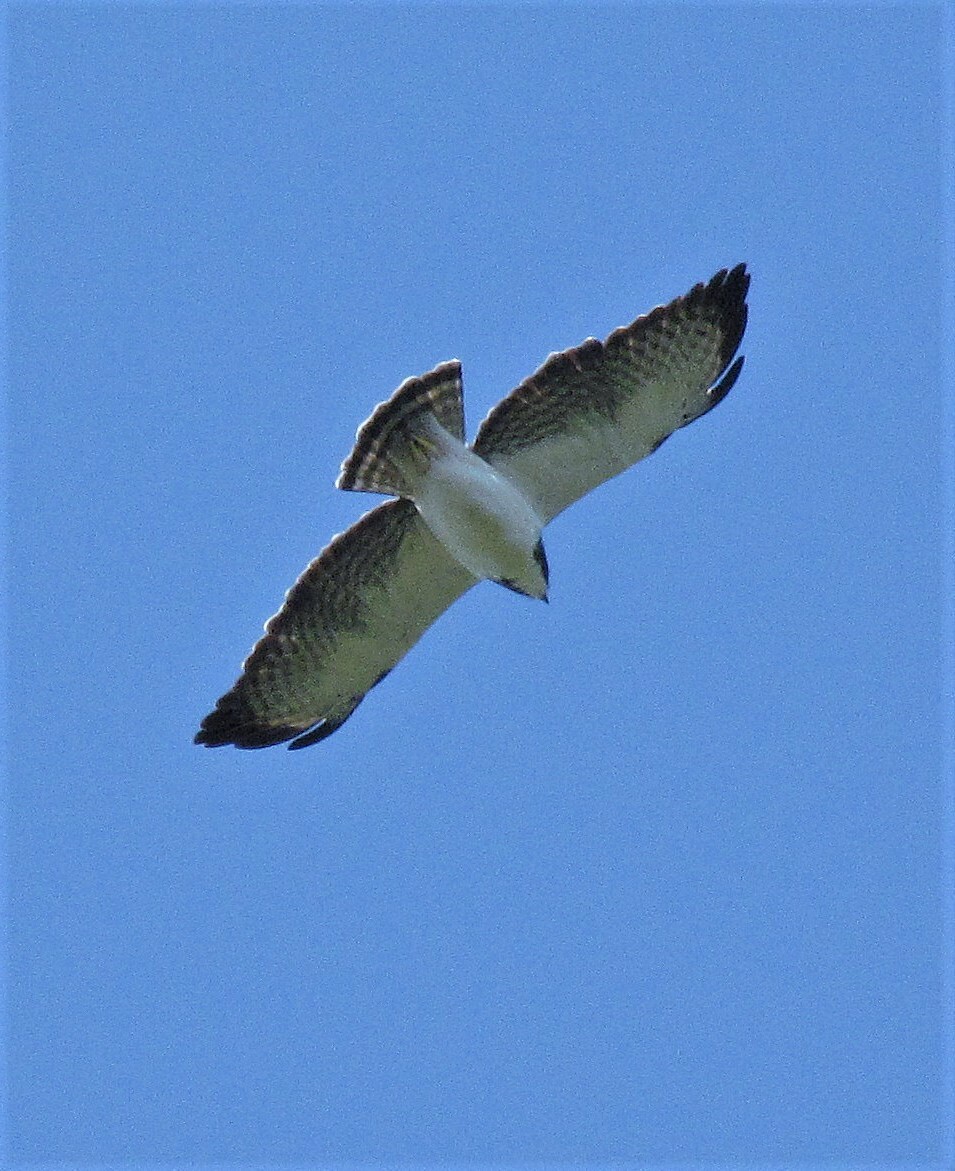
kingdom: Animalia
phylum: Chordata
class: Aves
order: Accipitriformes
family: Accipitridae
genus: Buteo
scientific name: Buteo brachyurus
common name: Short-tailed hawk
